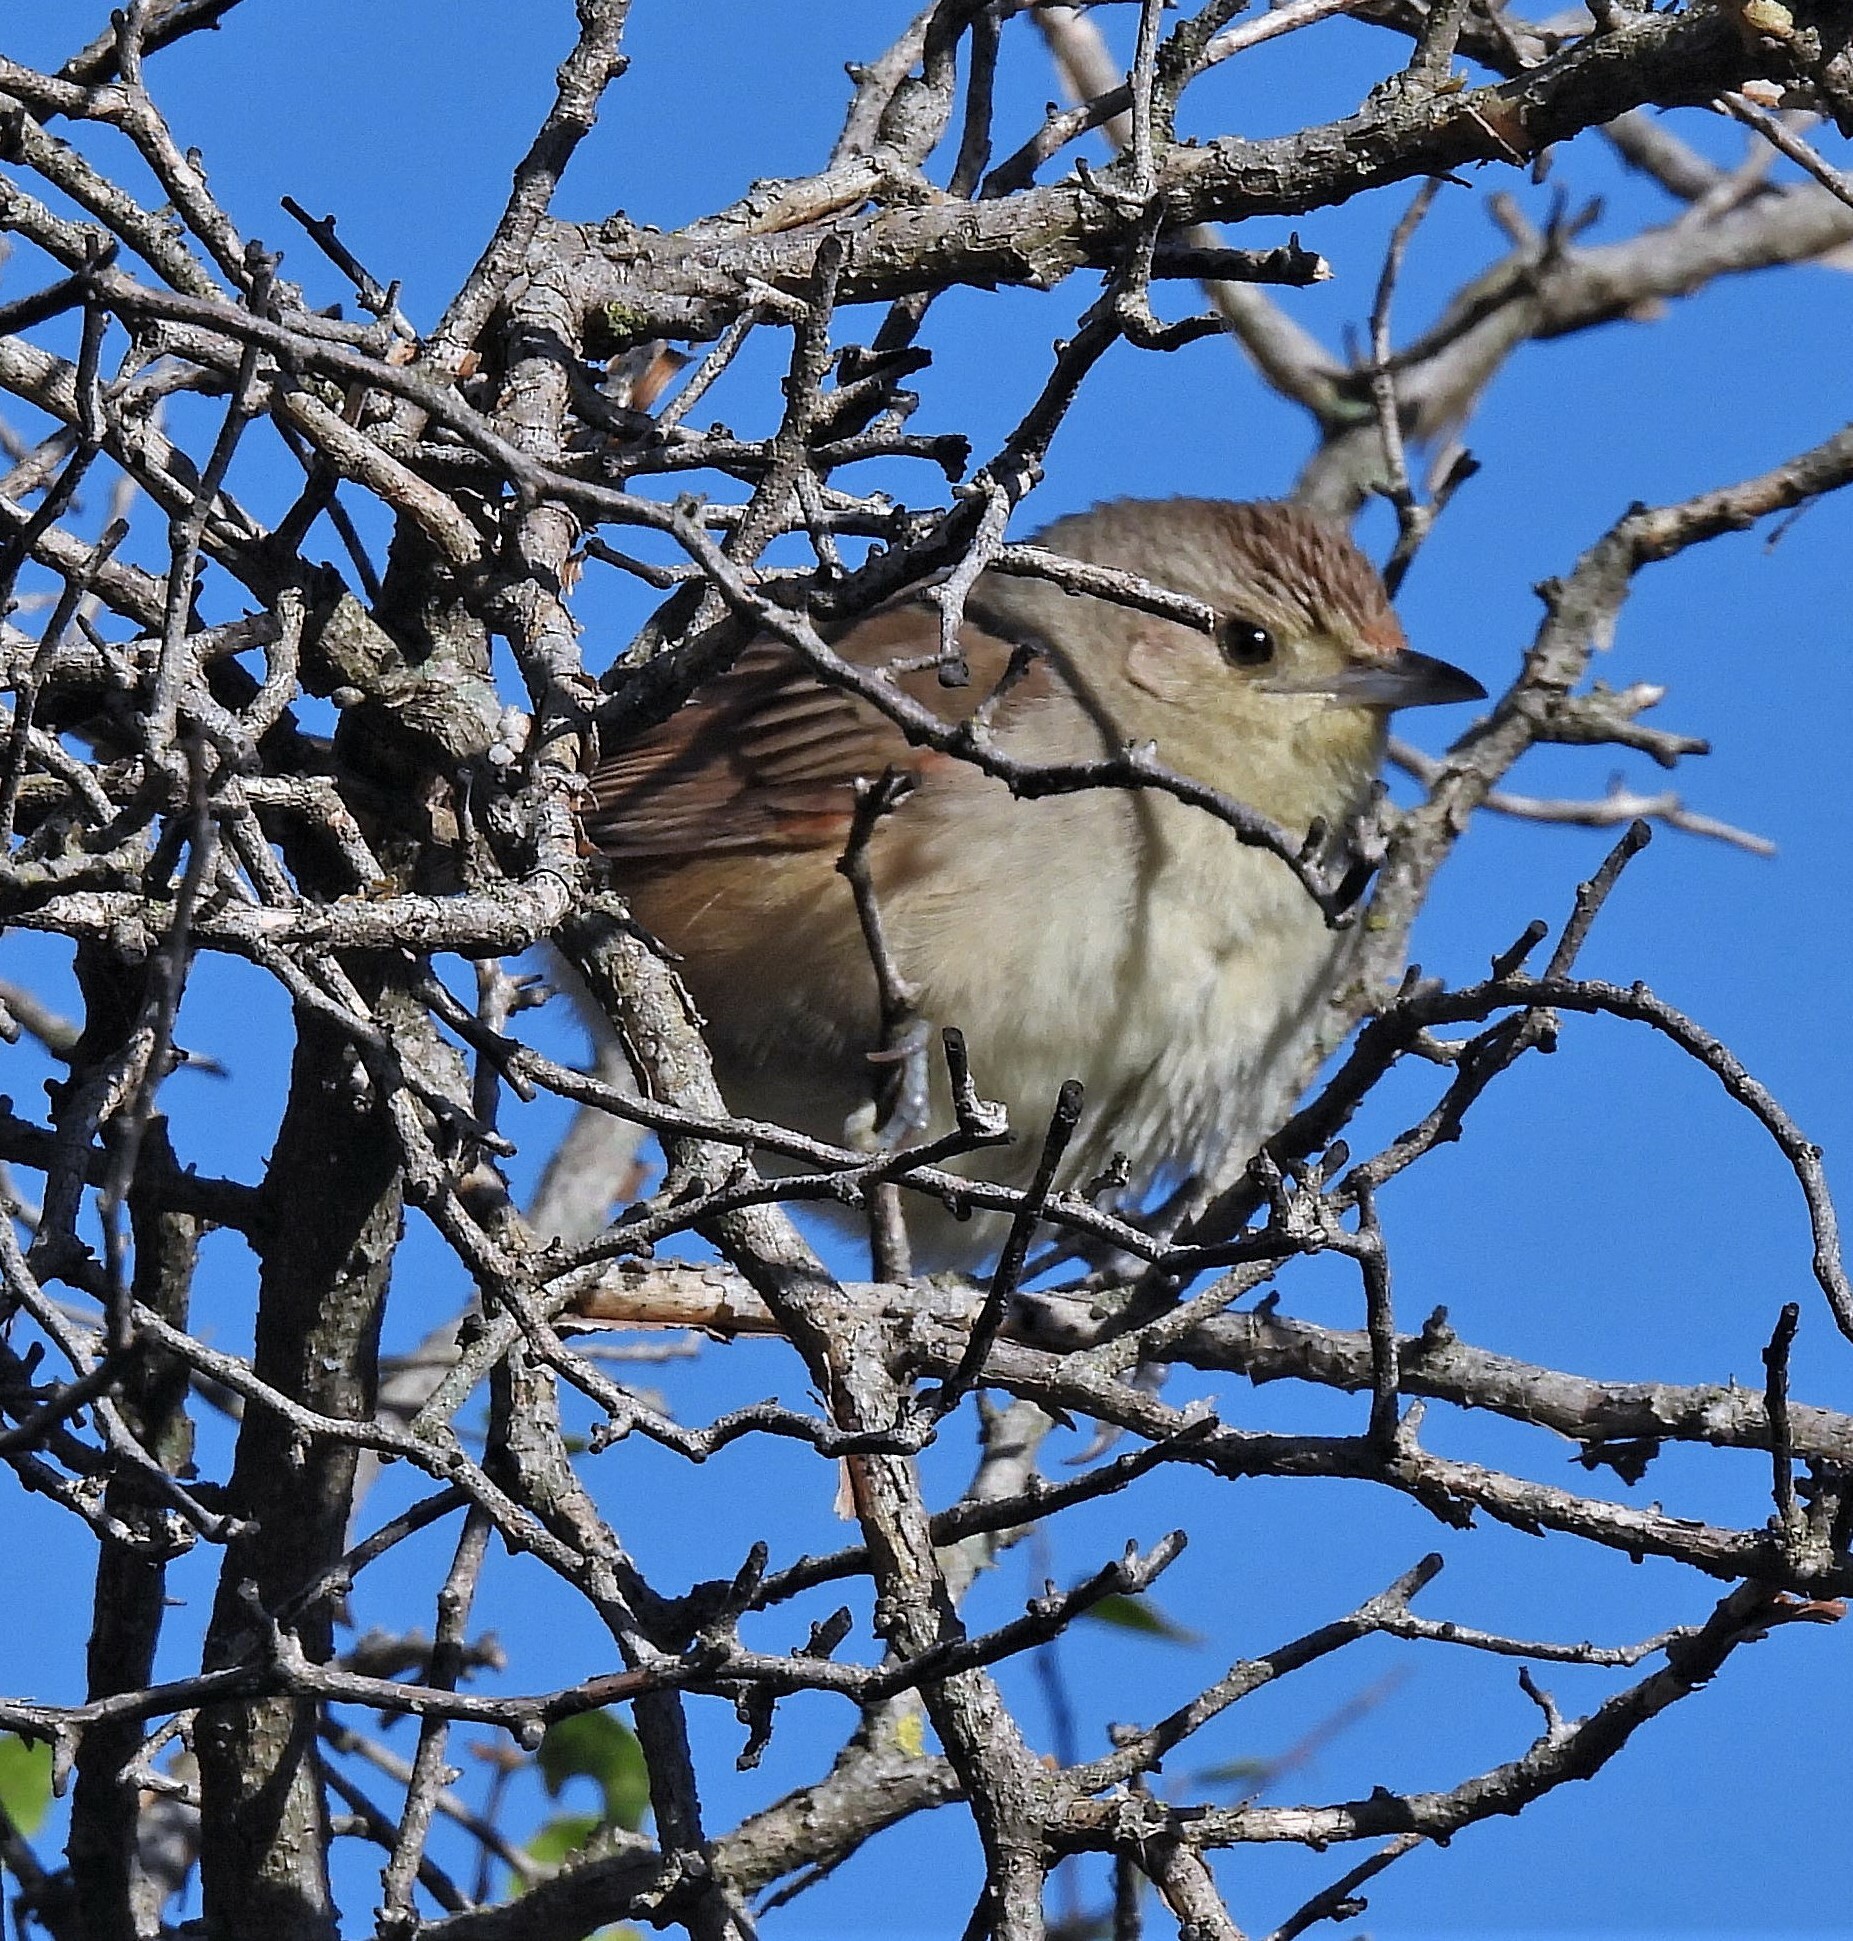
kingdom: Animalia
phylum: Chordata
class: Aves
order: Passeriformes
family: Furnariidae
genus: Phacellodomus
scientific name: Phacellodomus sibilatrix
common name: Little thornbird
